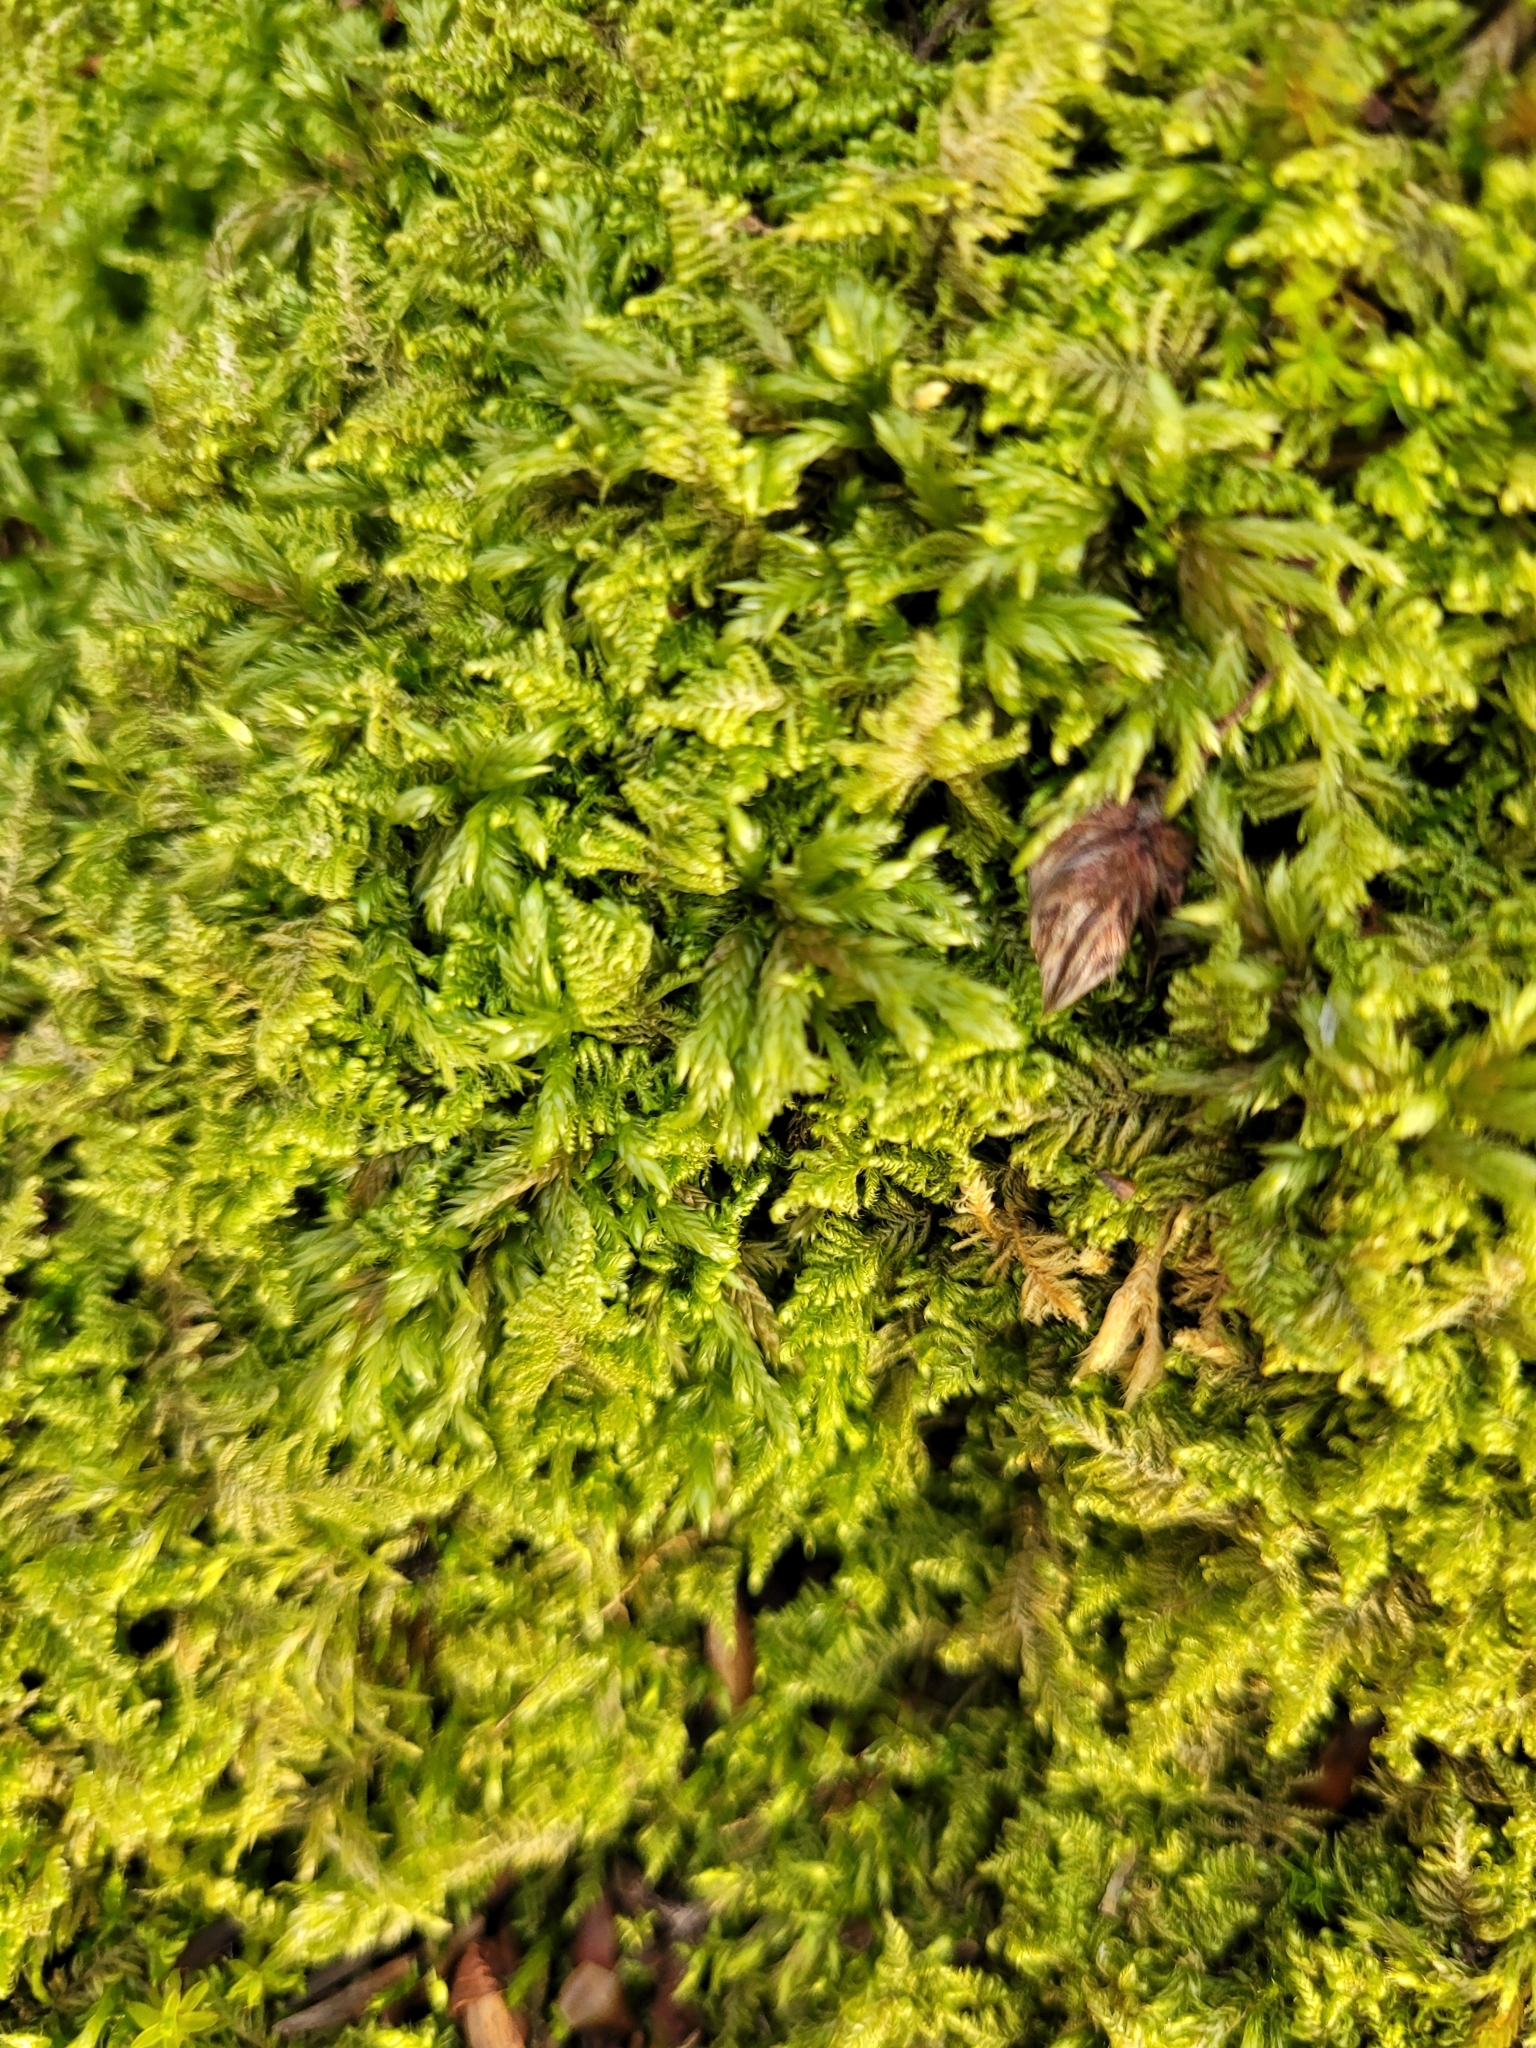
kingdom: Plantae
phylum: Bryophyta
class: Bryopsida
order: Hypnales
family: Myuriaceae
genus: Ctenidium
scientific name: Ctenidium molluscum
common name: Chalk comb-moss
